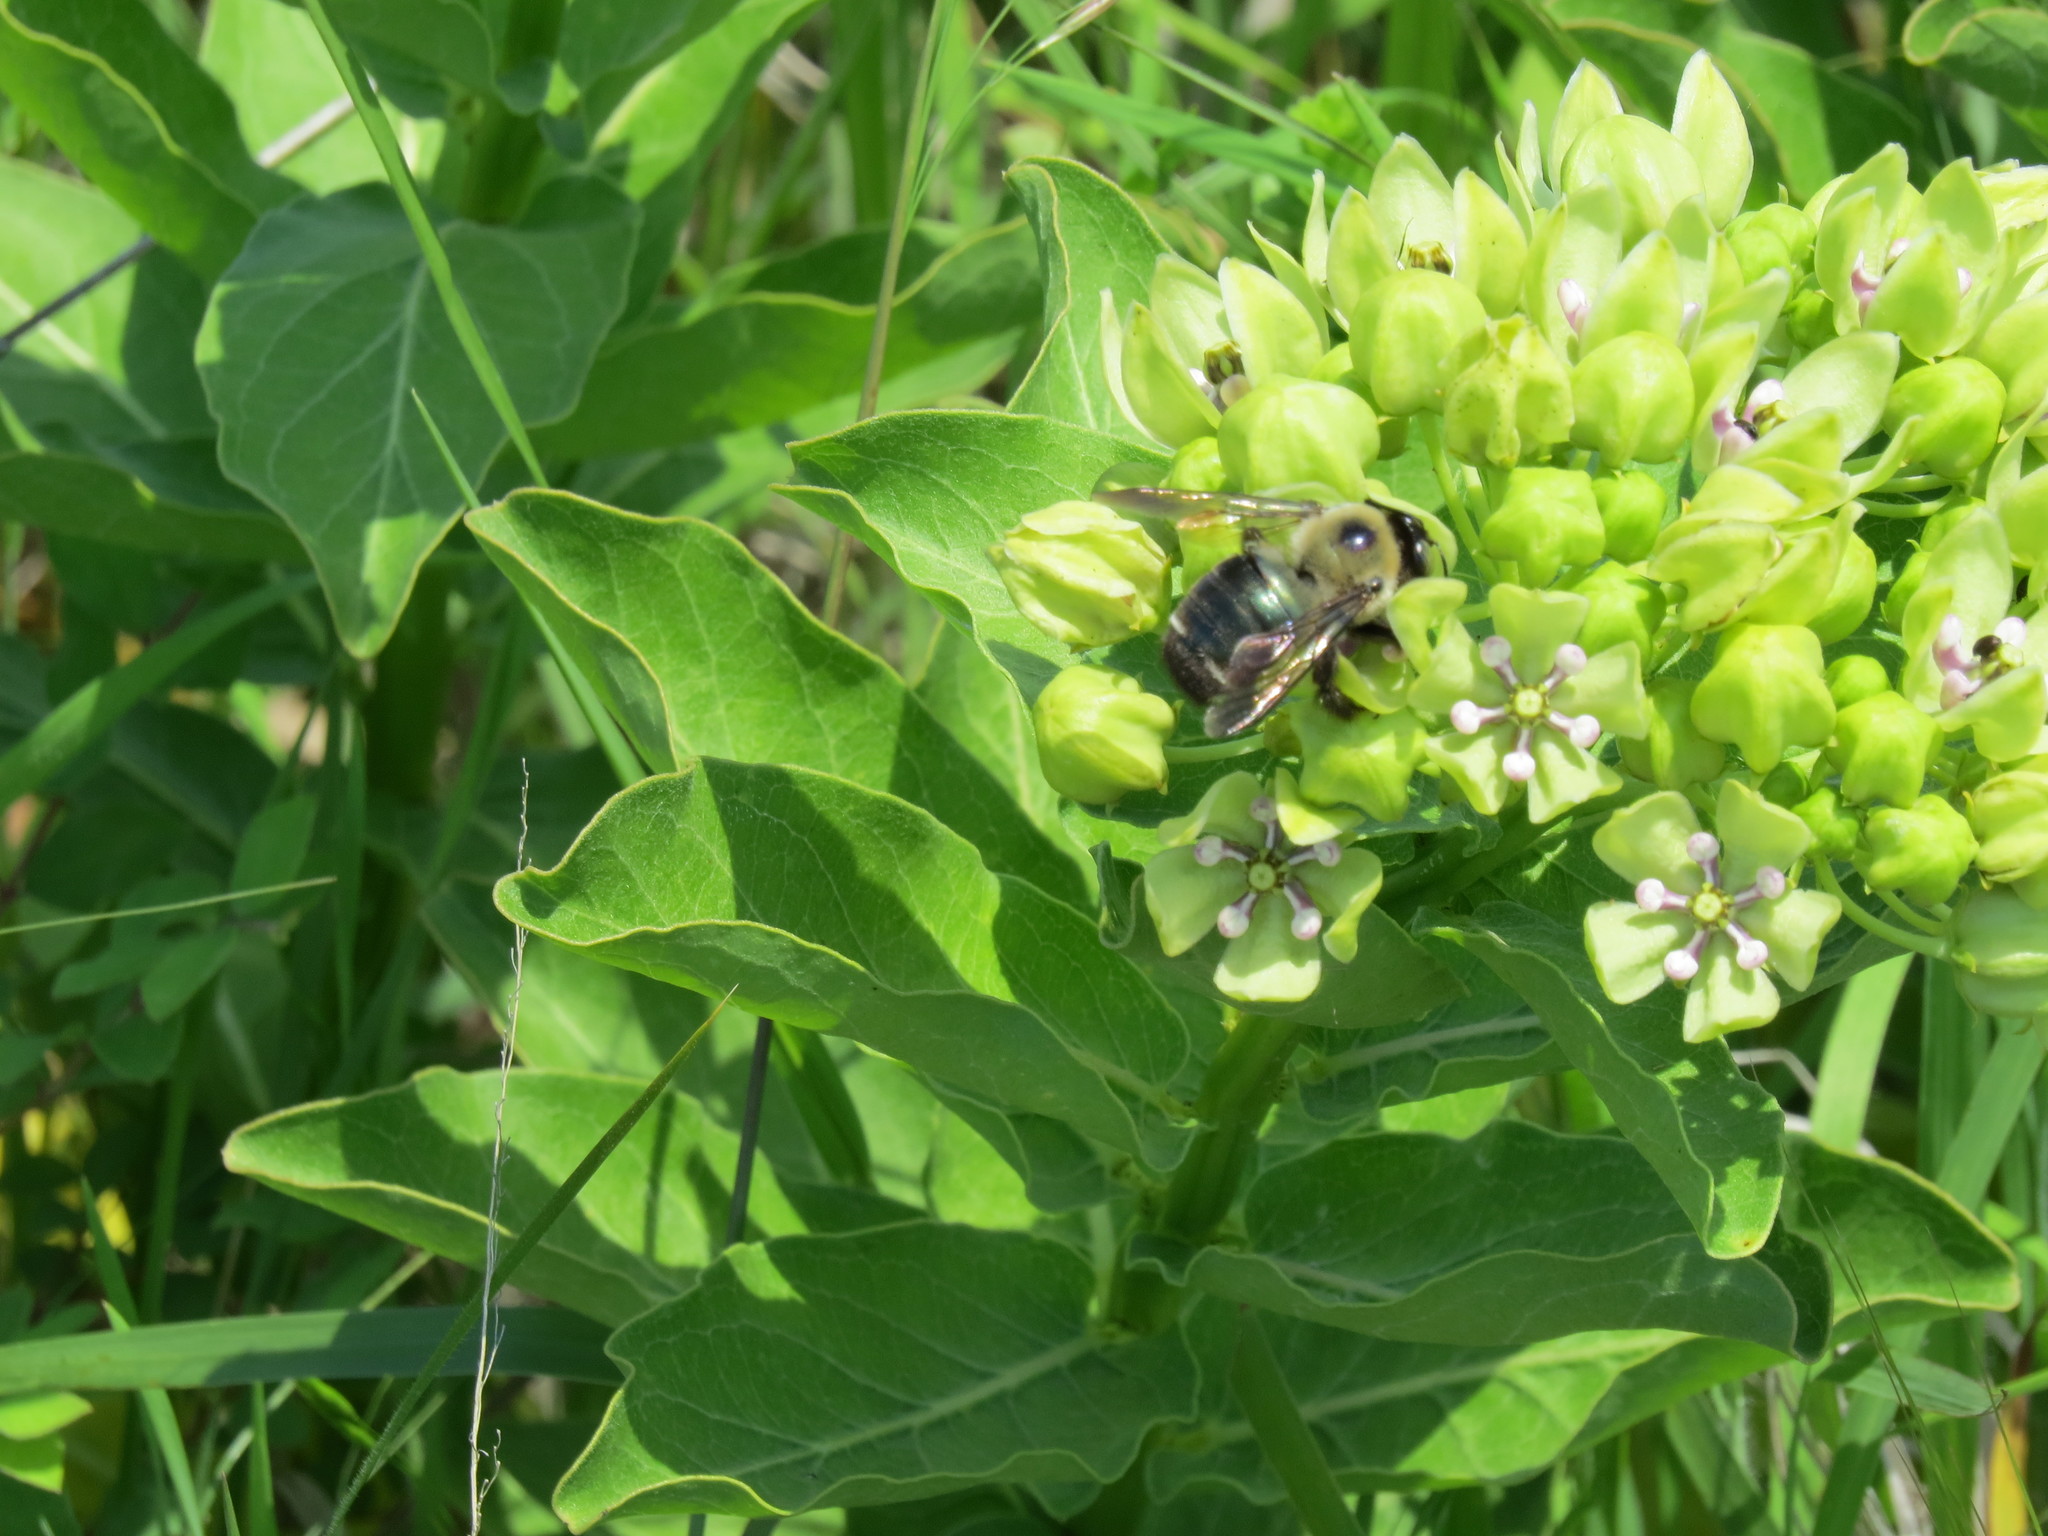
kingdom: Animalia
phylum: Arthropoda
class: Insecta
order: Hymenoptera
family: Apidae
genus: Xylocopa
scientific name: Xylocopa virginica
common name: Carpenter bee
